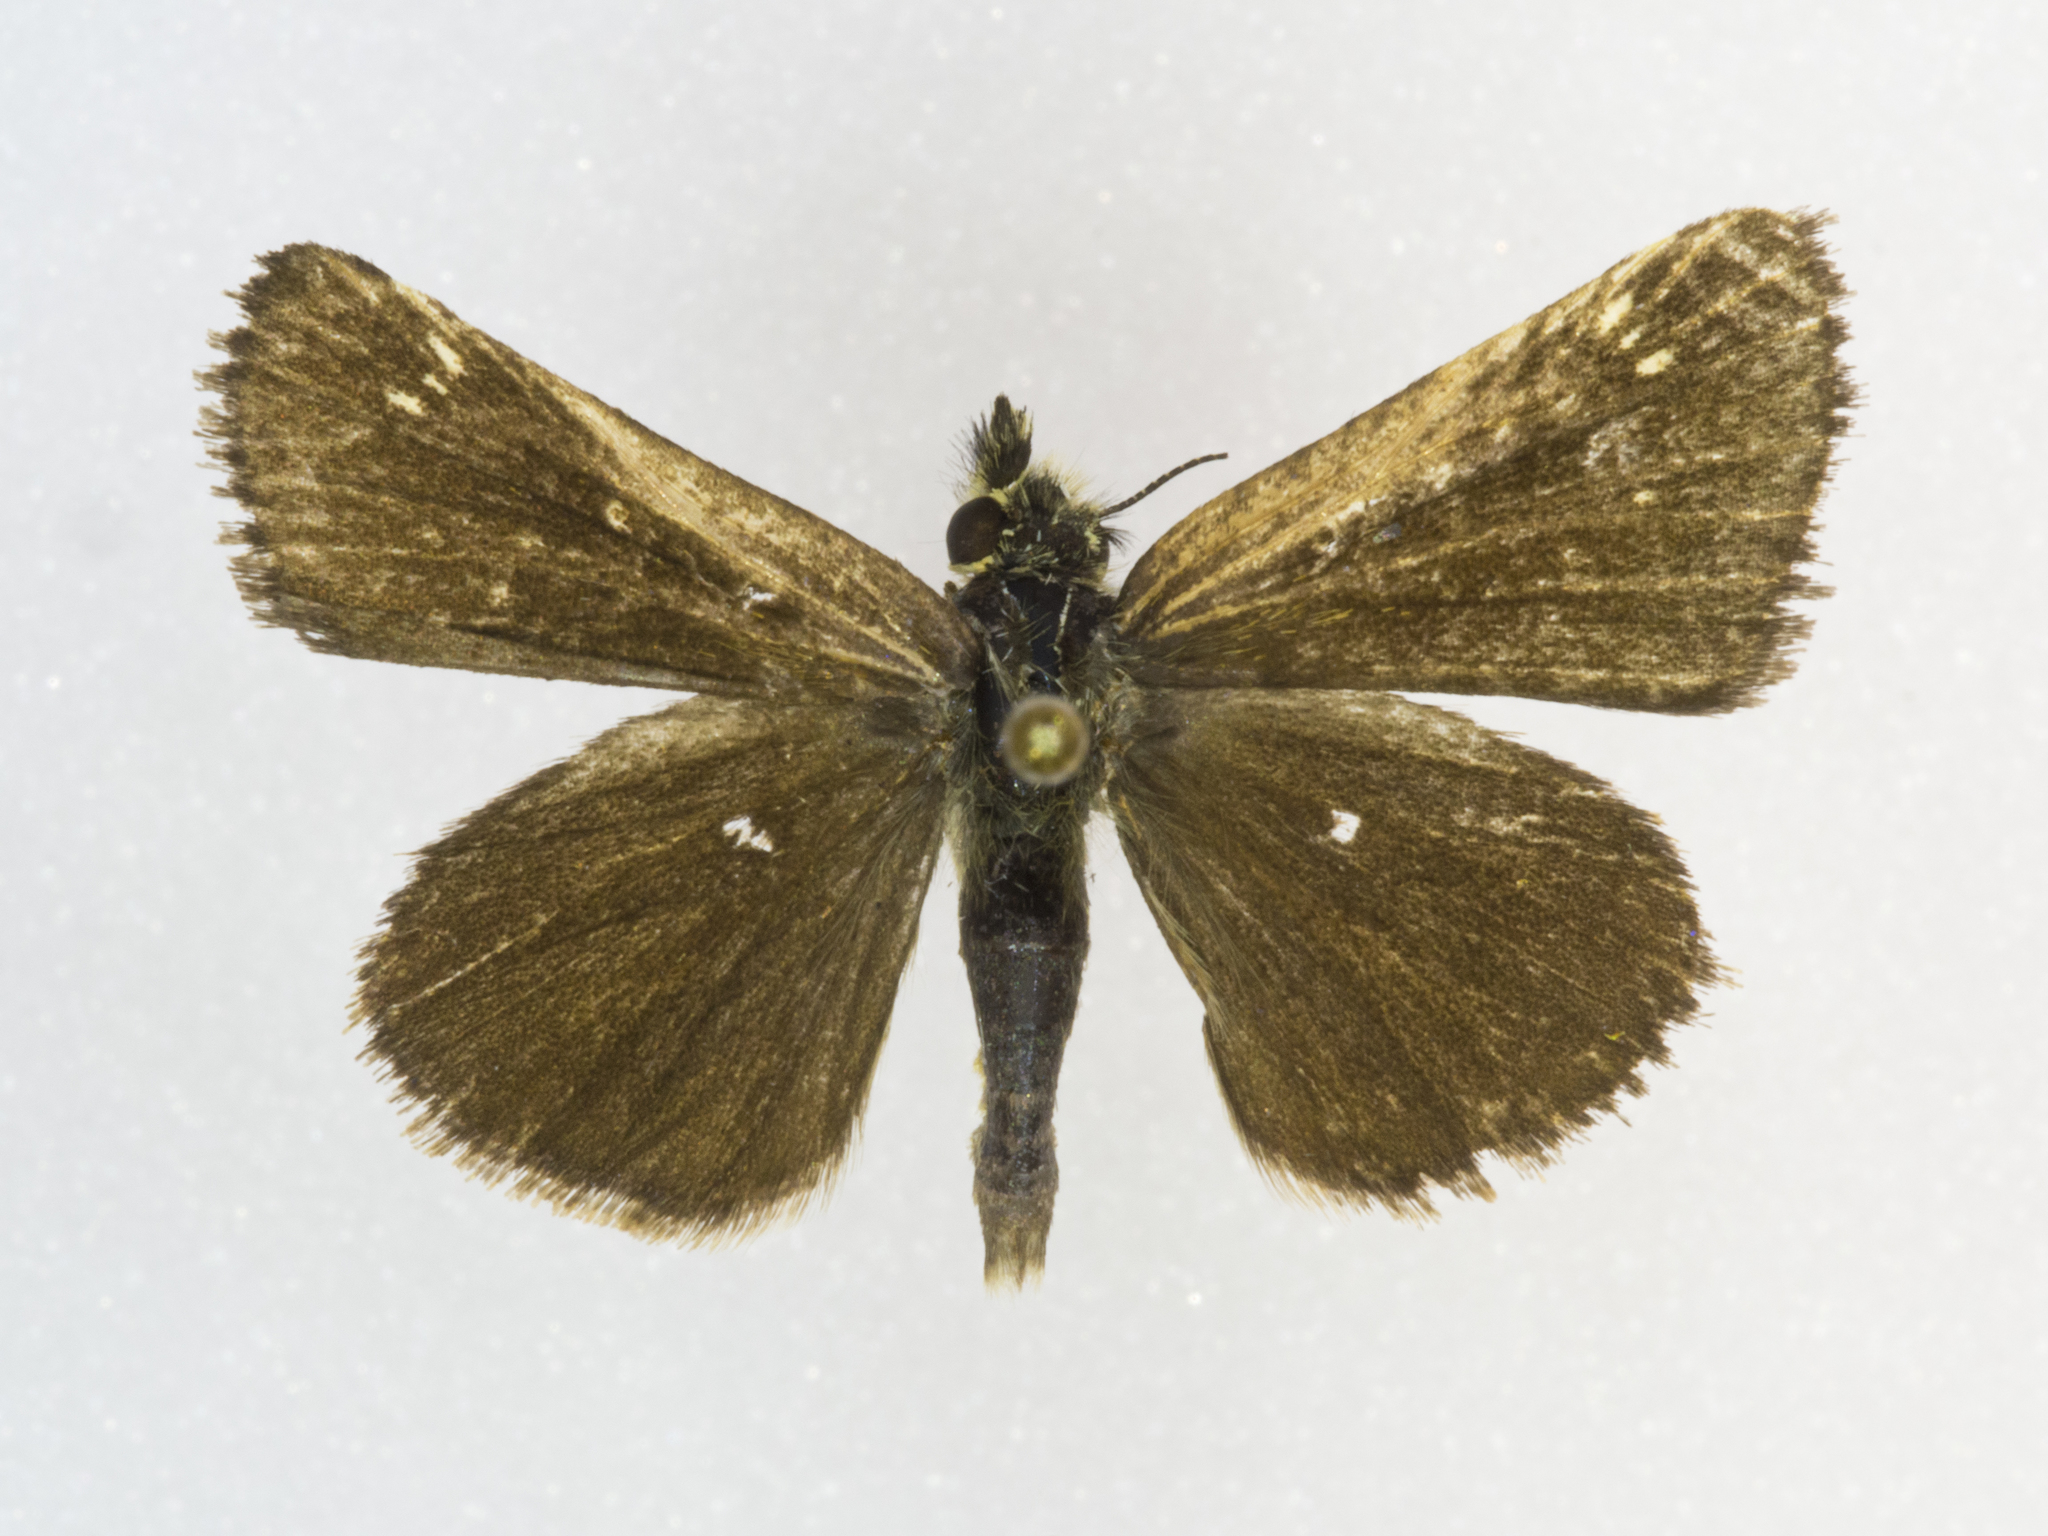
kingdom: Animalia
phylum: Arthropoda
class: Insecta
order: Lepidoptera
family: Hesperiidae
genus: Piruna
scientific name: Piruna pirus
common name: Russet skipperling
